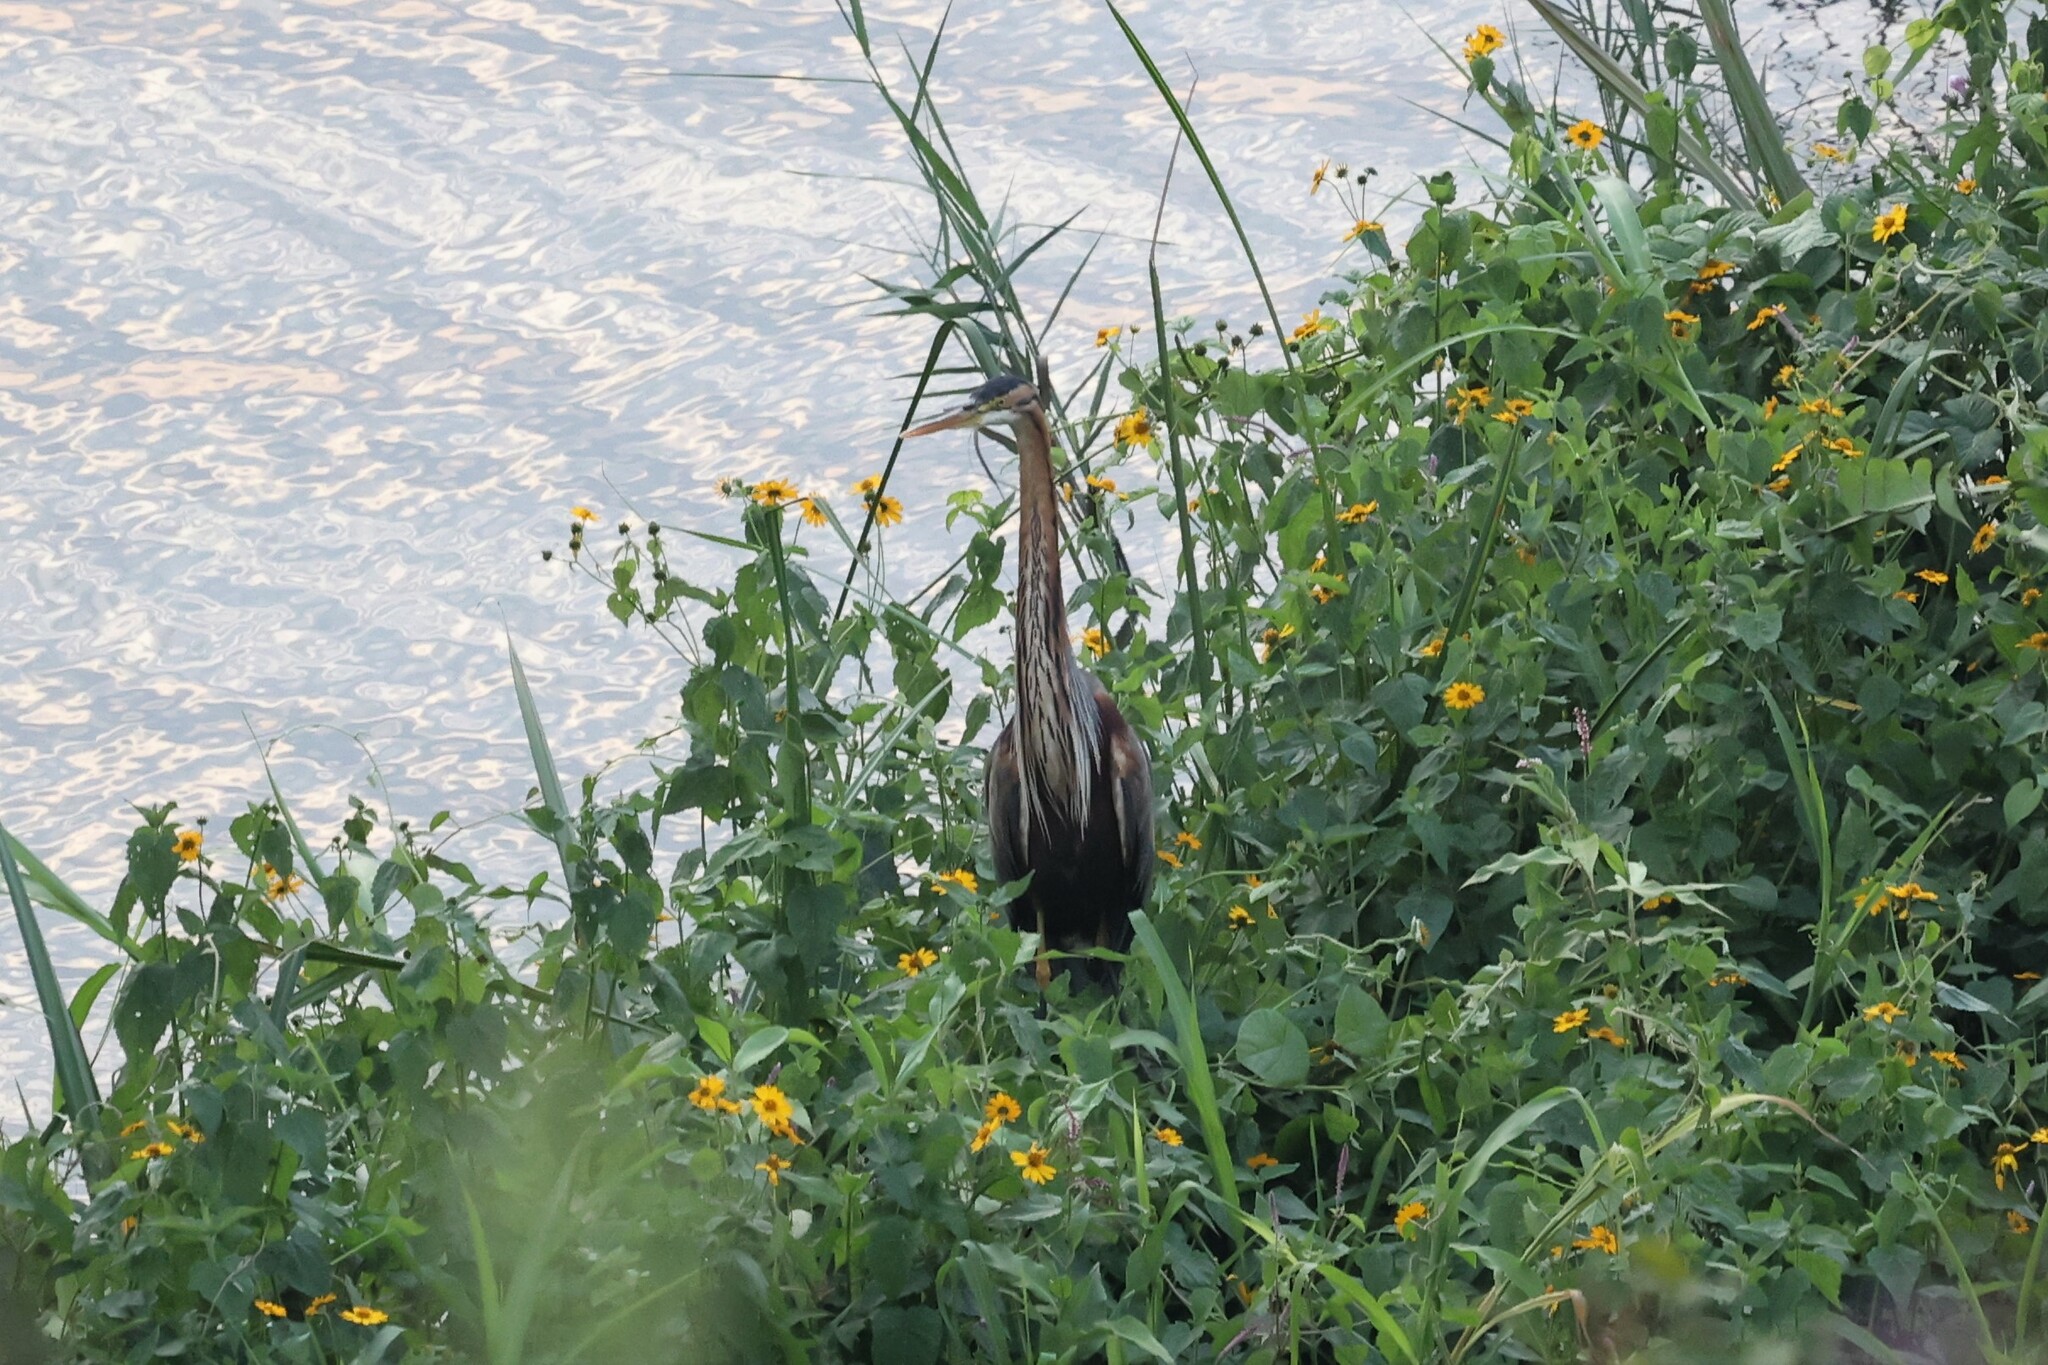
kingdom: Animalia
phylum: Chordata
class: Aves
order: Pelecaniformes
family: Ardeidae
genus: Ardea
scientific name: Ardea purpurea
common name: Purple heron
